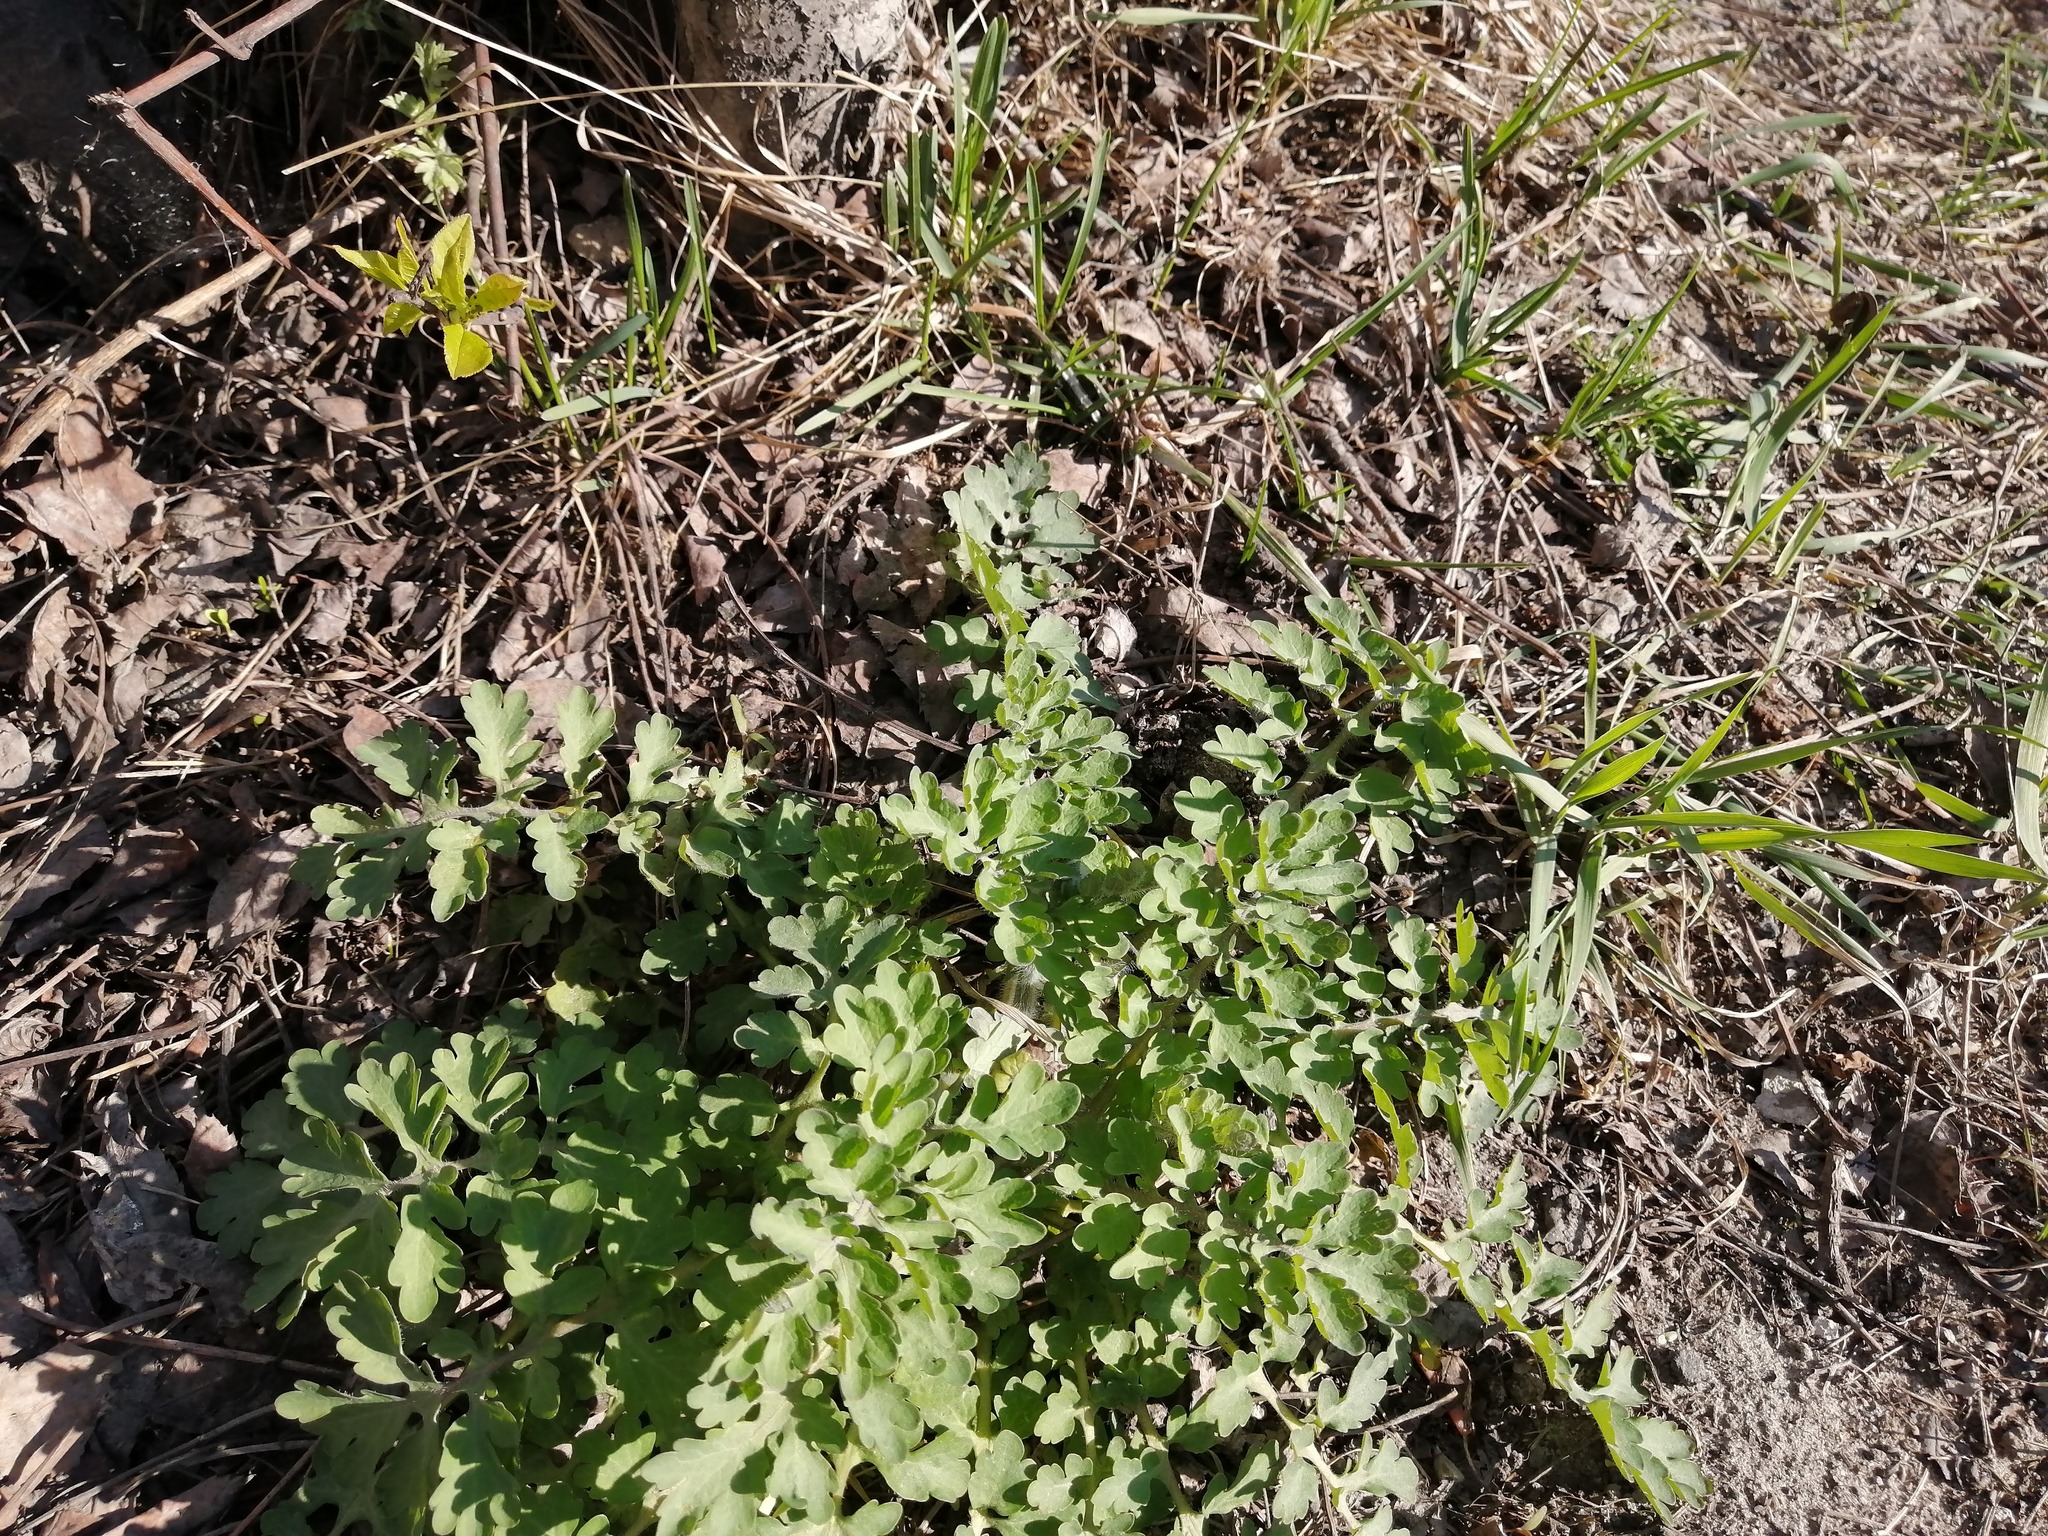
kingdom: Plantae
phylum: Tracheophyta
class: Magnoliopsida
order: Ranunculales
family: Papaveraceae
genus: Chelidonium
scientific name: Chelidonium majus
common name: Greater celandine
